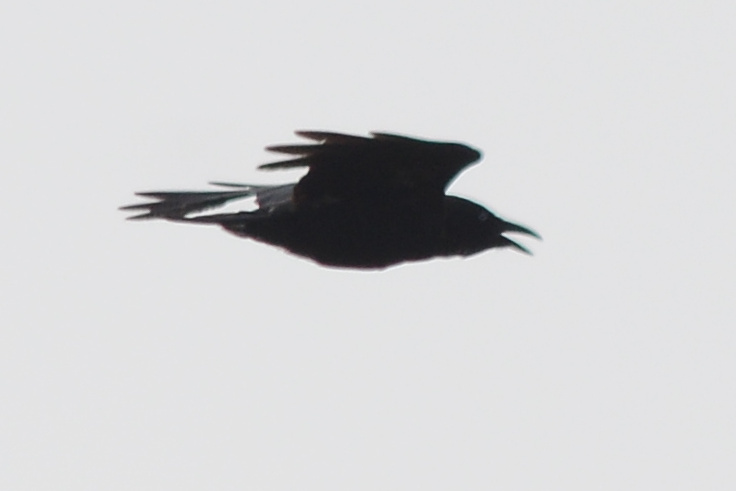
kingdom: Animalia
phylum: Chordata
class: Aves
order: Passeriformes
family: Corvidae
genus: Corvus
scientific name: Corvus tasmanicus
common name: Forest raven
